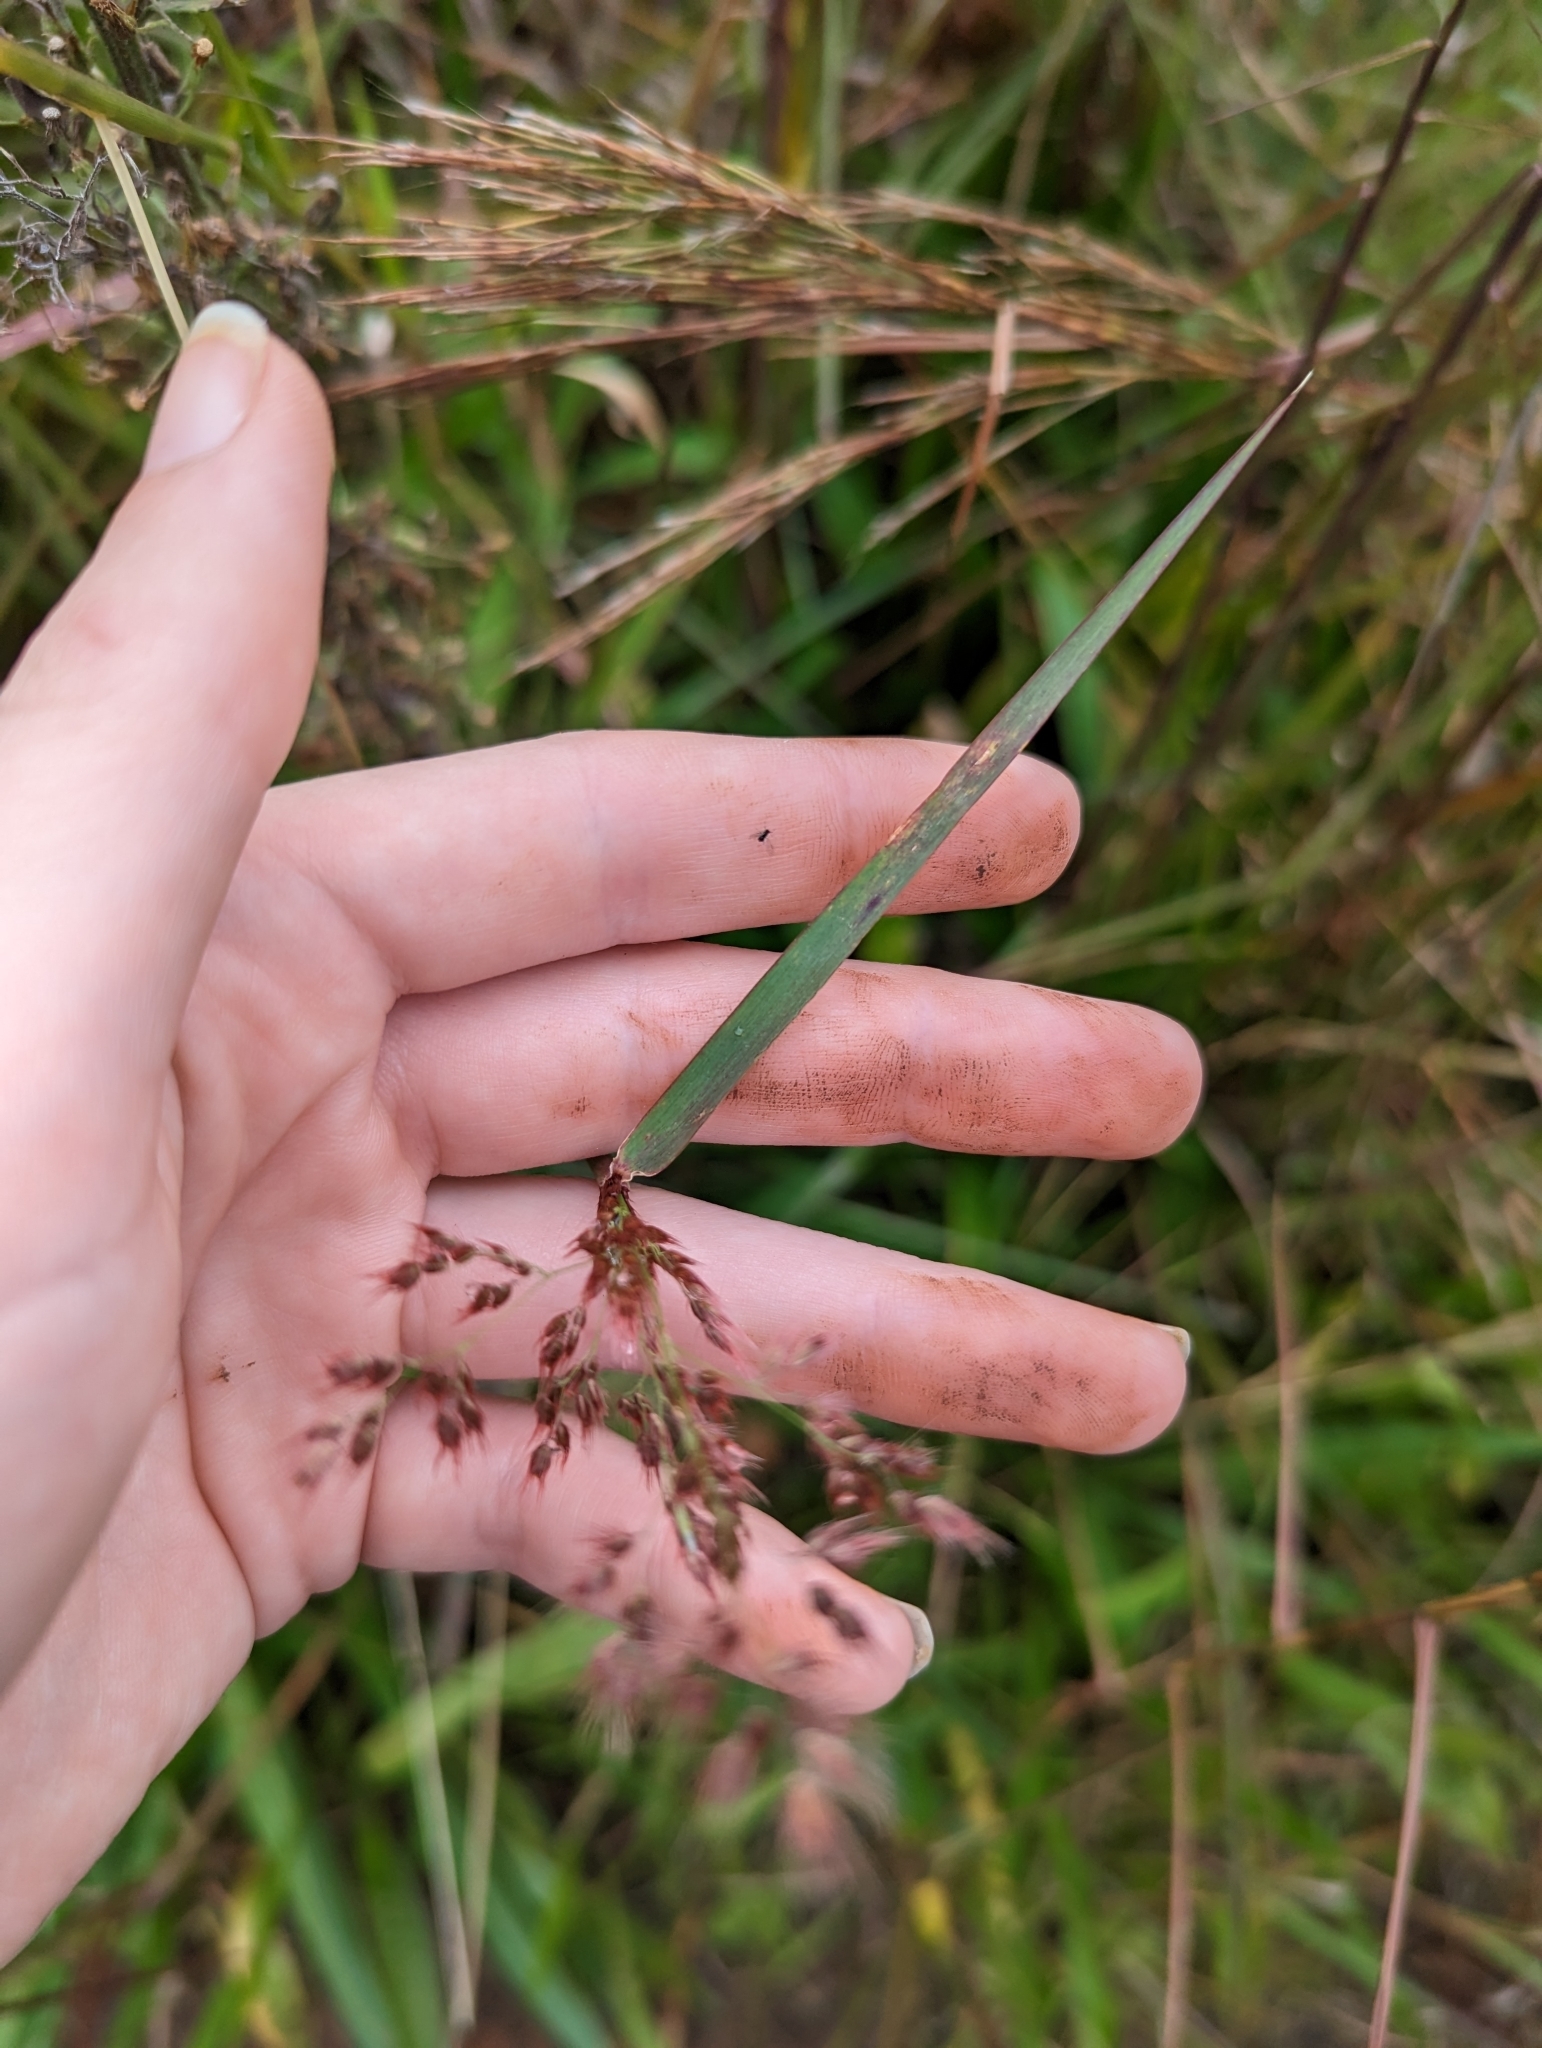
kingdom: Plantae
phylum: Tracheophyta
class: Liliopsida
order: Poales
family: Poaceae
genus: Melinis
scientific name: Melinis repens
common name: Rose natal grass
